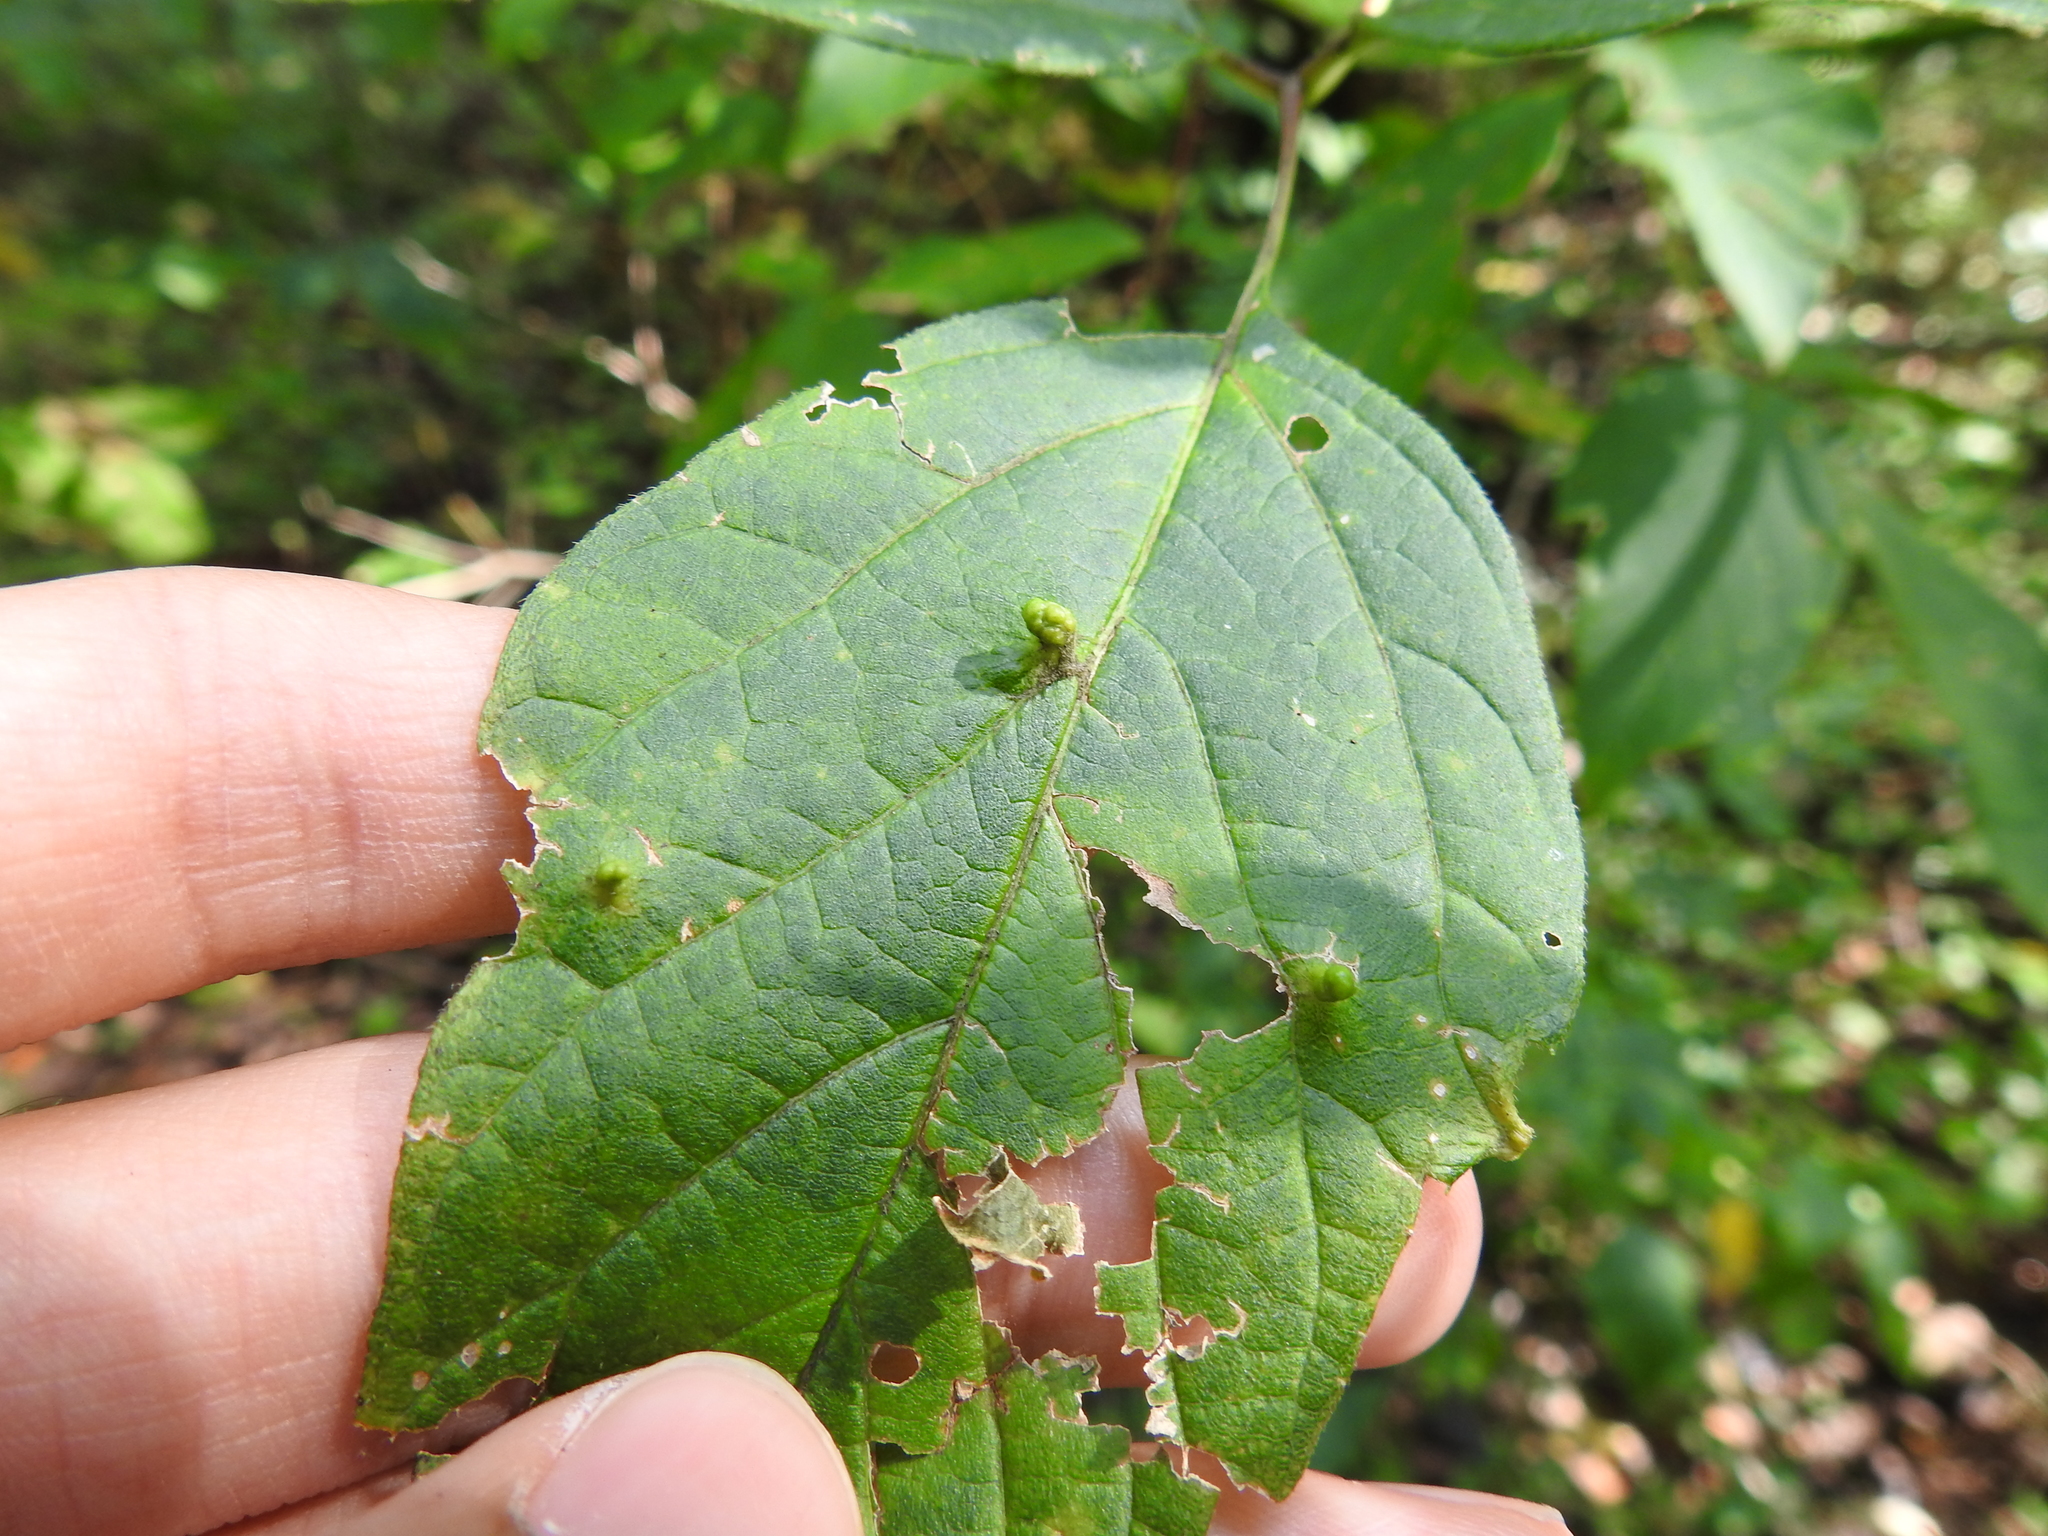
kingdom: Animalia
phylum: Arthropoda
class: Arachnida
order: Trombidiformes
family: Eriophyidae
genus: Aceria
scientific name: Aceria
